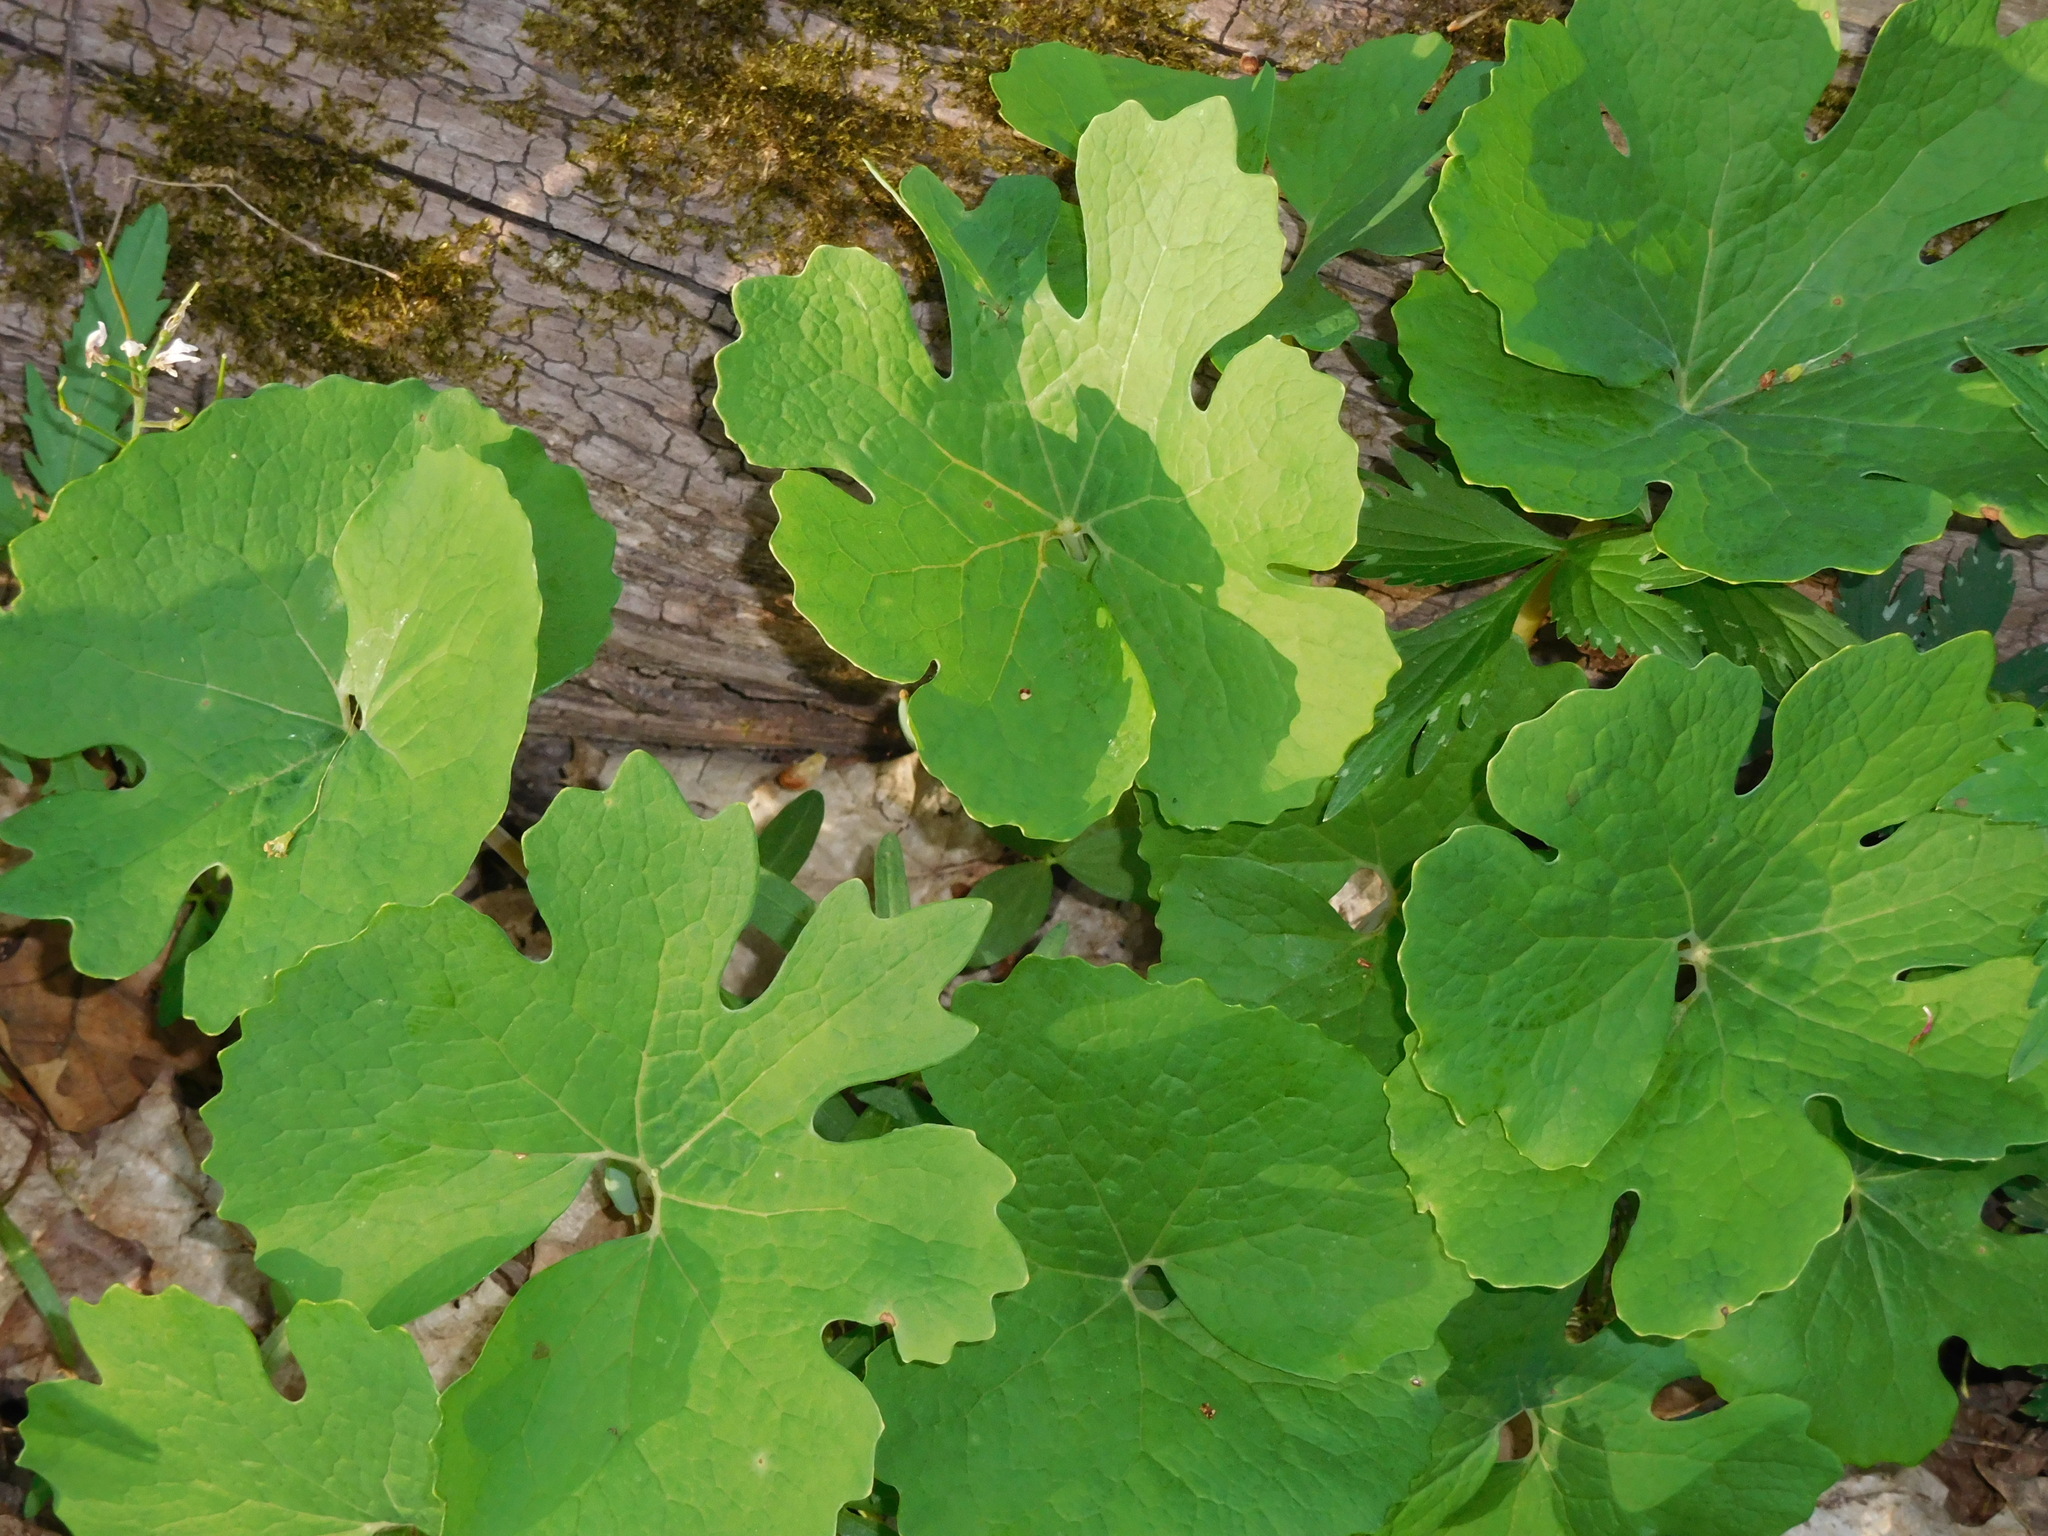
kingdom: Plantae
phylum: Tracheophyta
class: Magnoliopsida
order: Ranunculales
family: Papaveraceae
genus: Sanguinaria
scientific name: Sanguinaria canadensis
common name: Bloodroot
